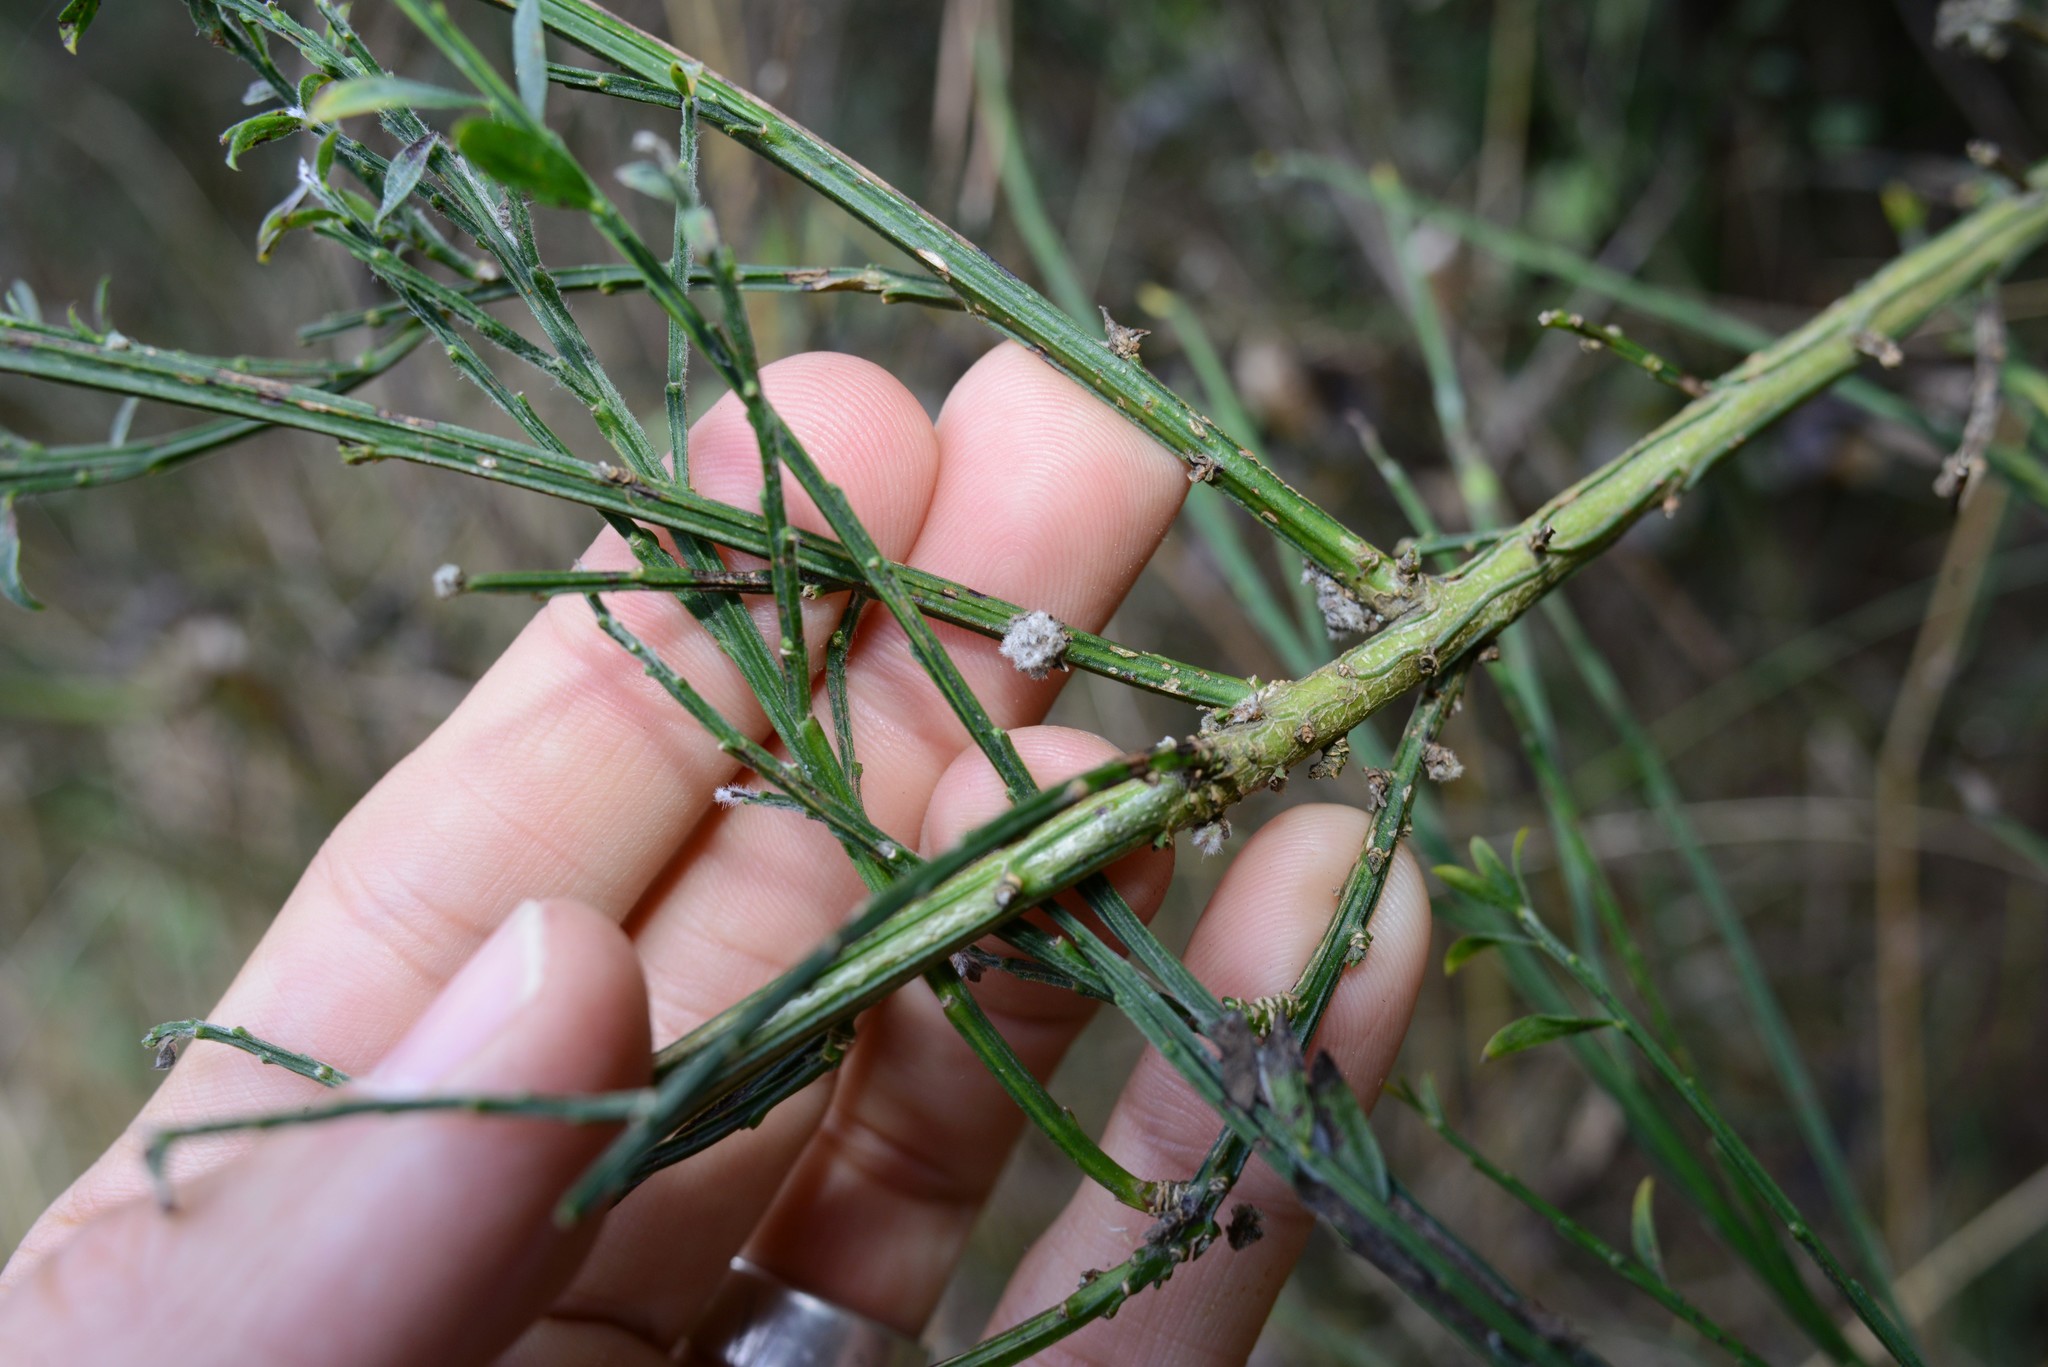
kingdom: Animalia
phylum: Arthropoda
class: Arachnida
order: Trombidiformes
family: Eriophyidae
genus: Aceria
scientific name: Aceria genistae
